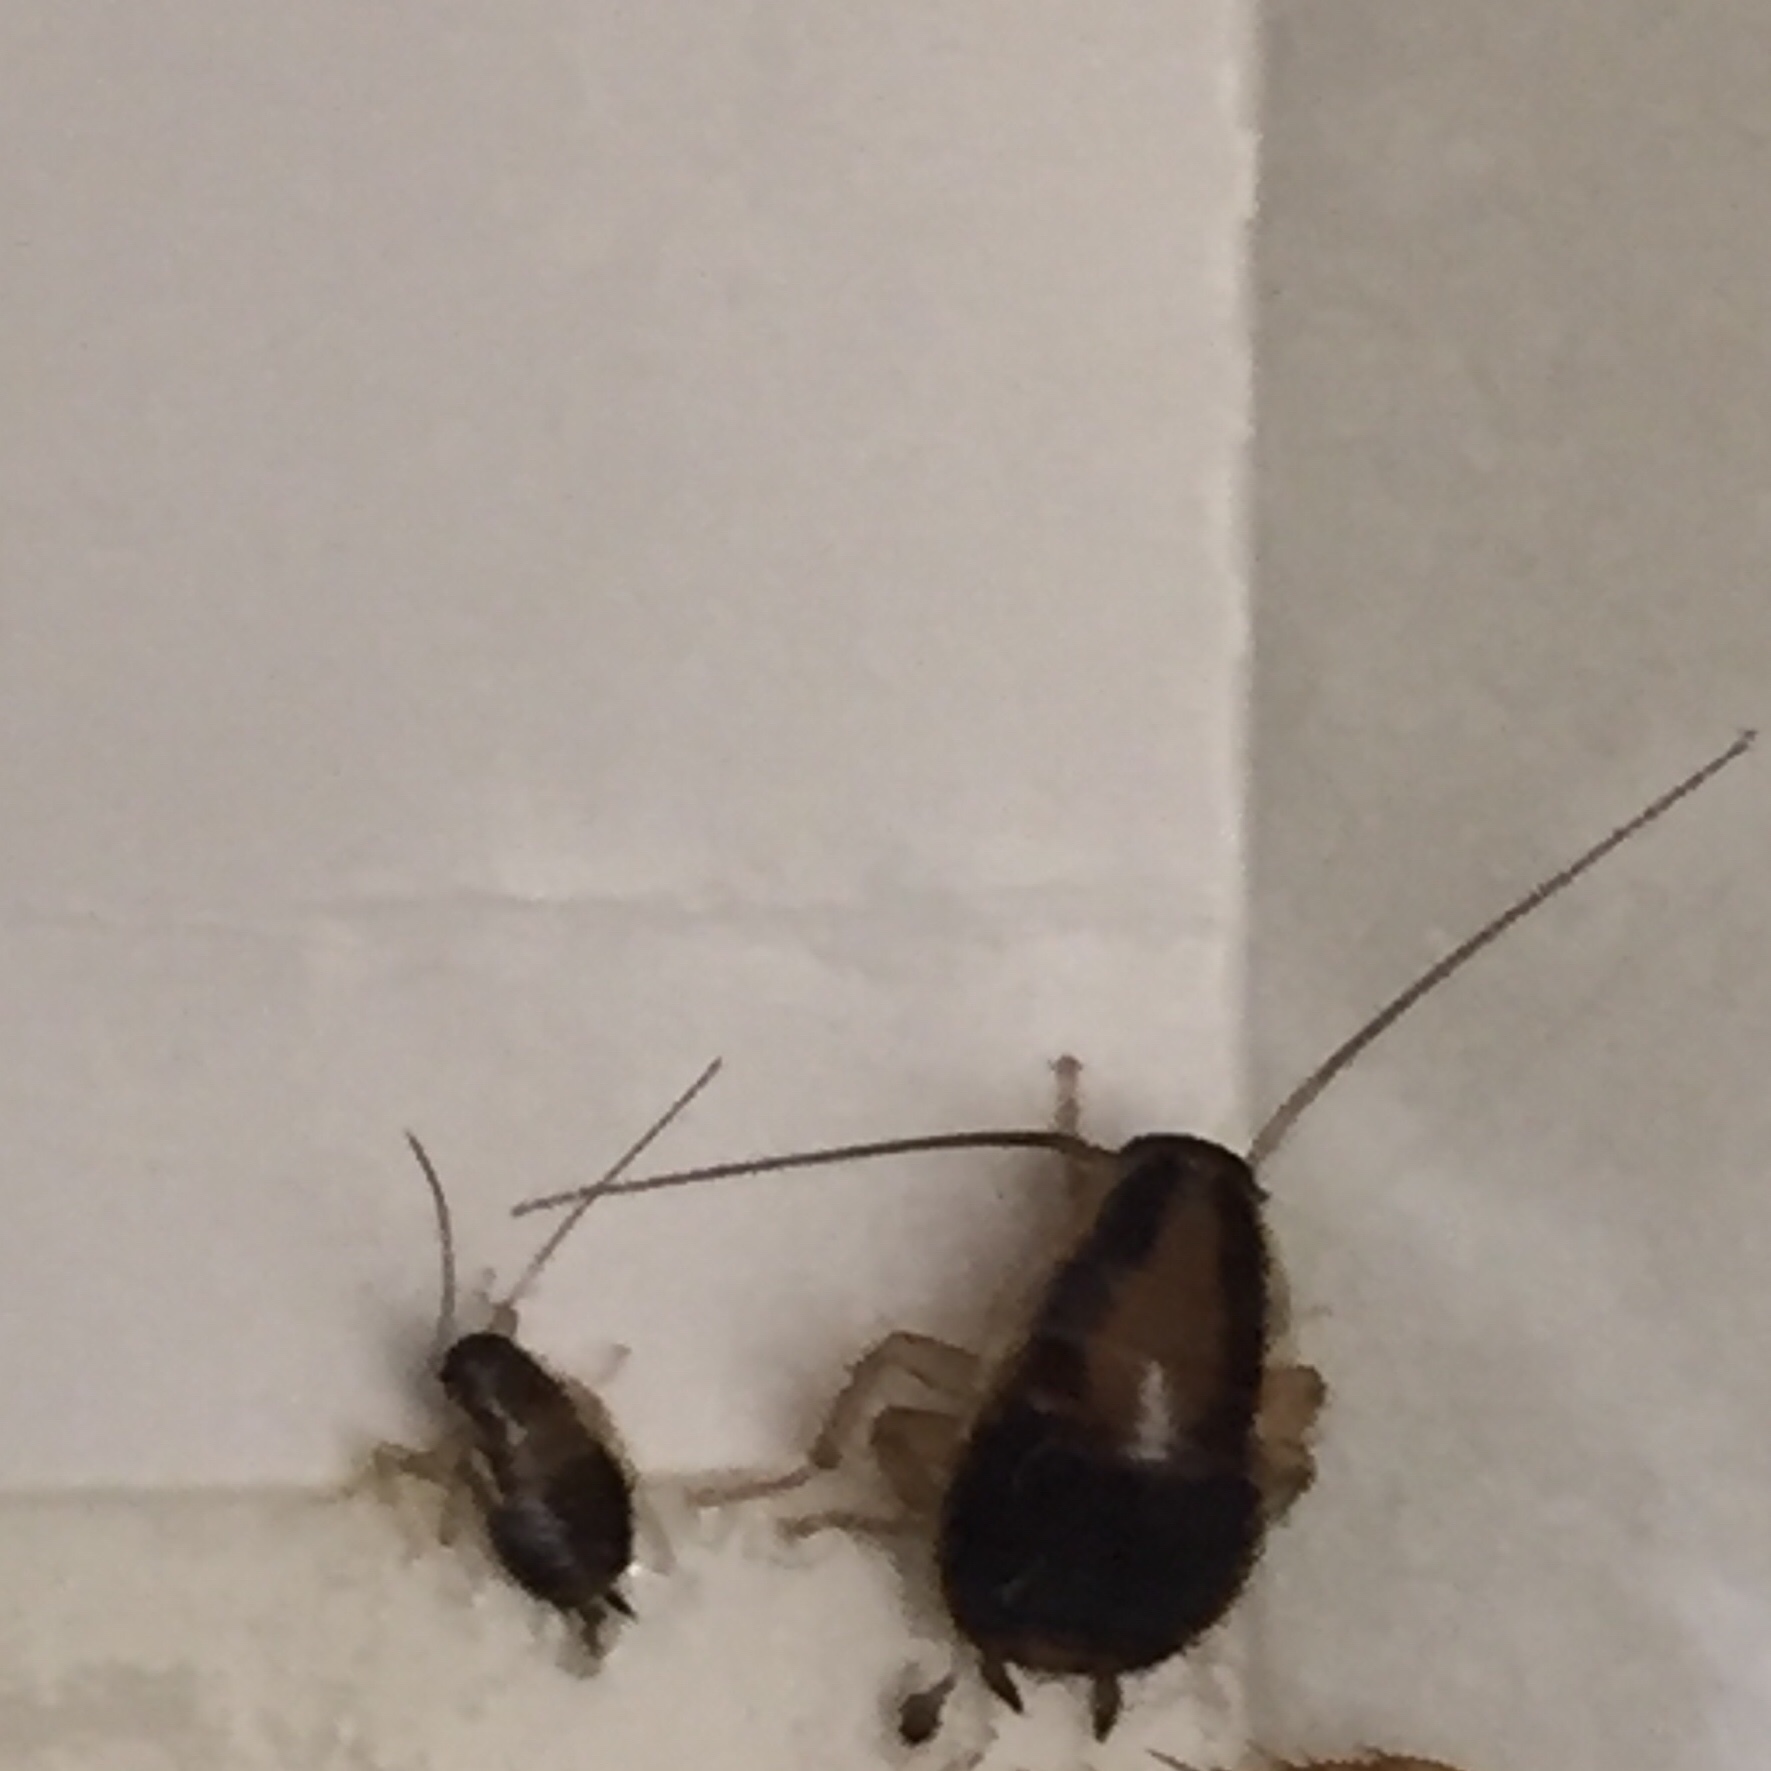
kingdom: Animalia
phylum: Arthropoda
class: Insecta
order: Blattodea
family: Ectobiidae
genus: Blattella
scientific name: Blattella germanica
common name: German cockroach
